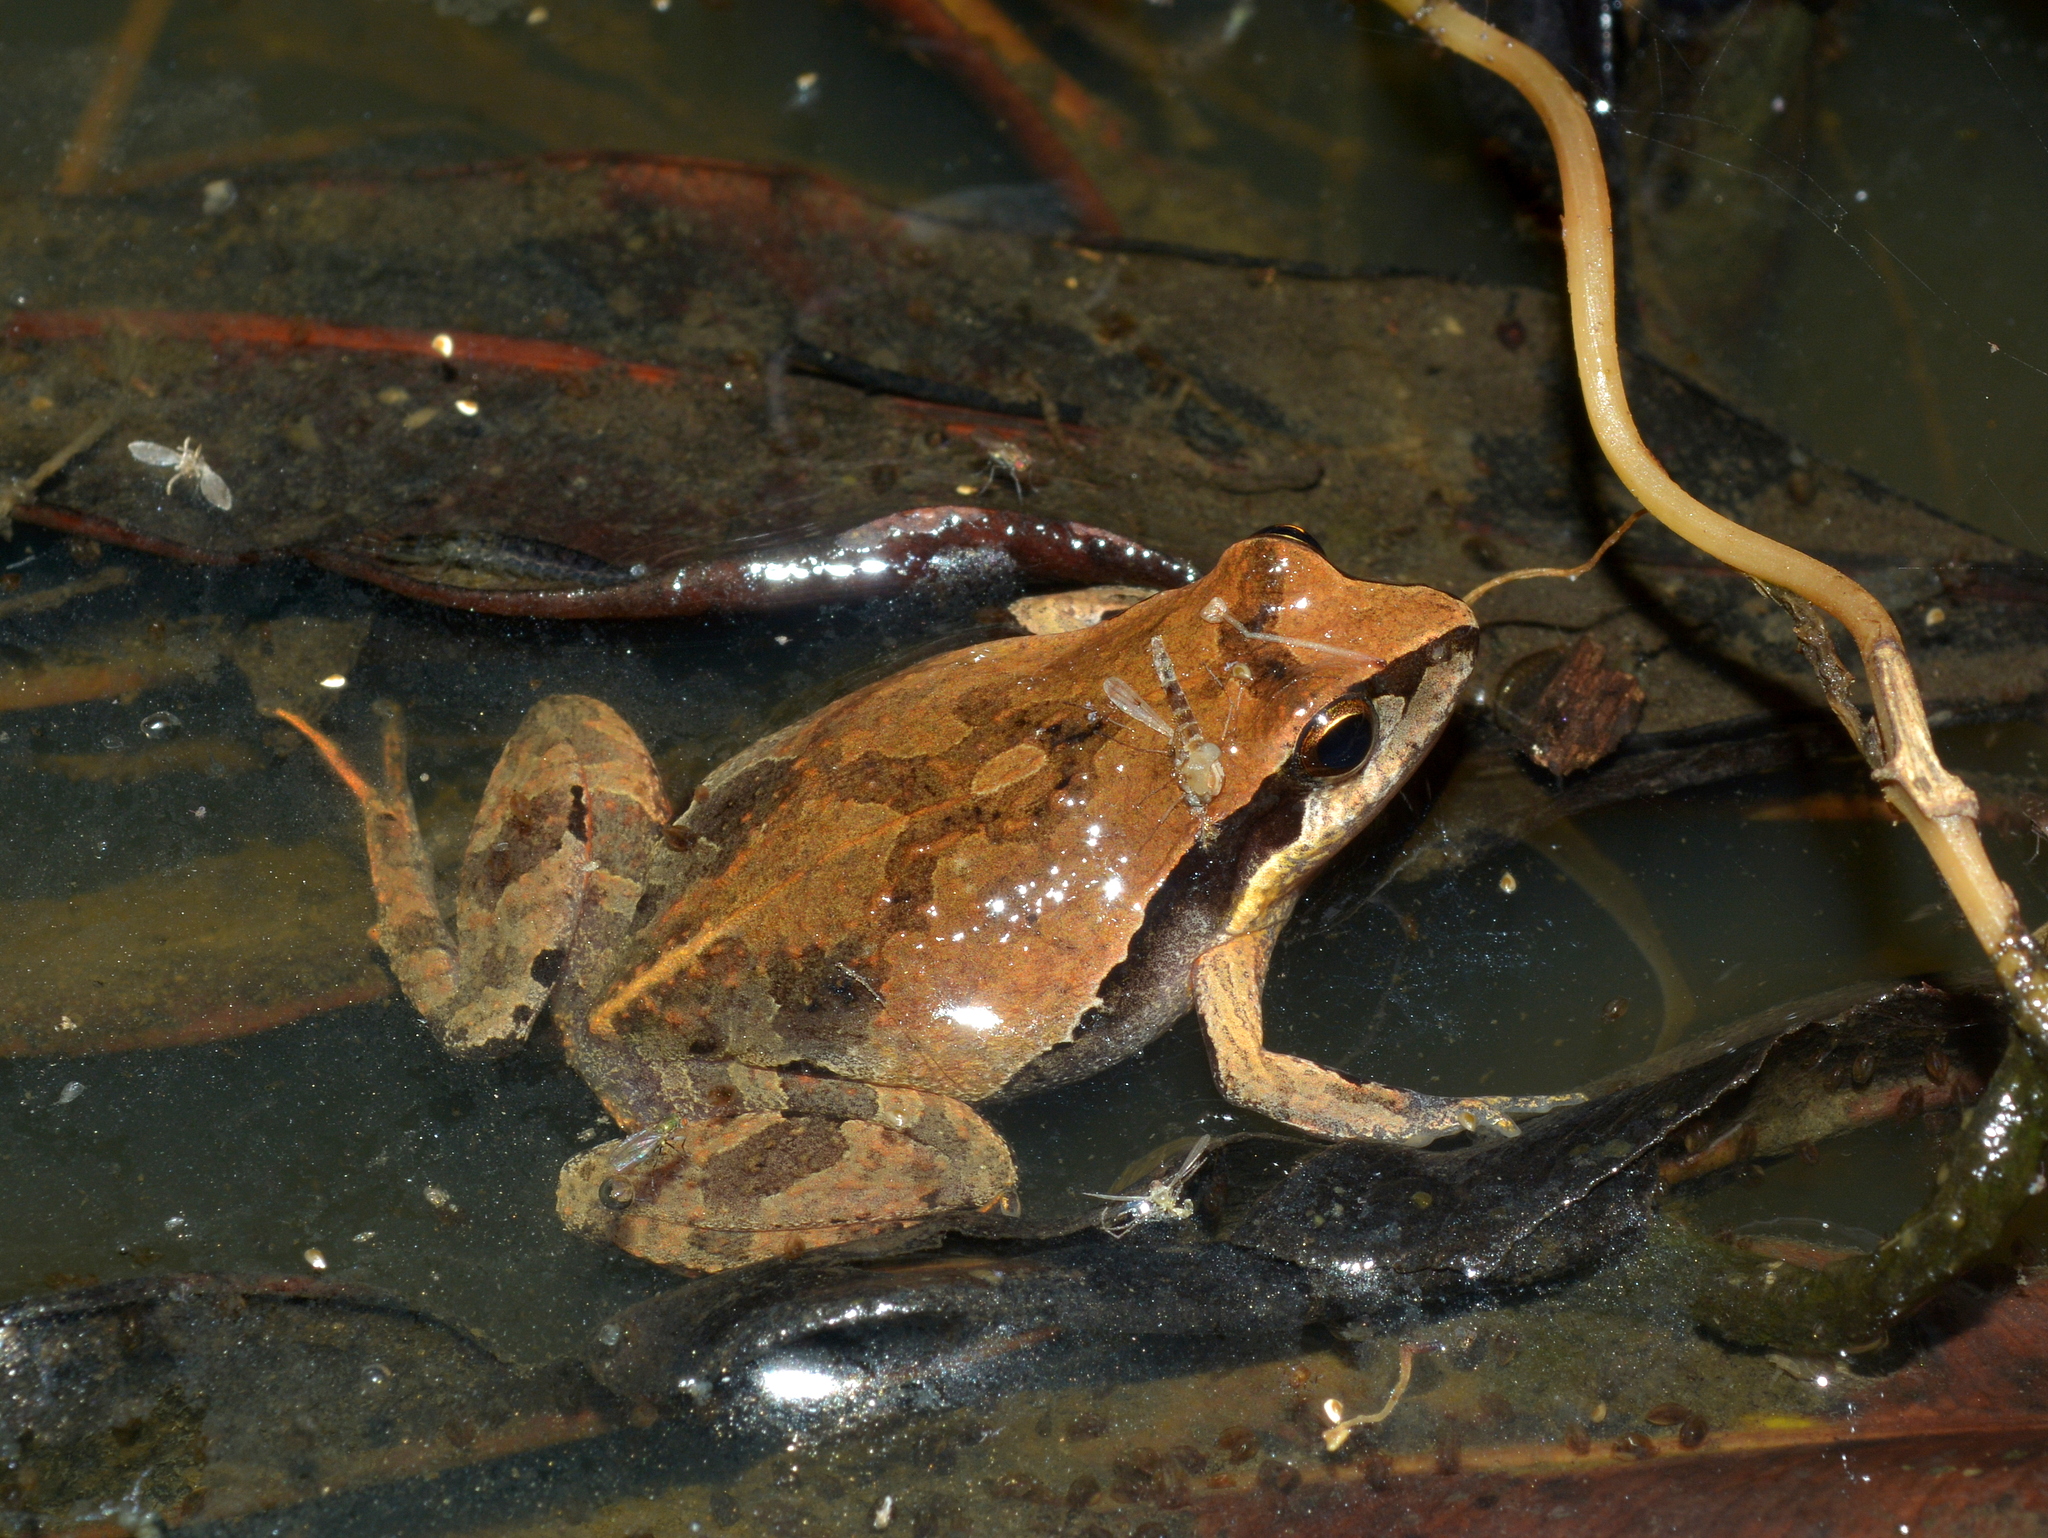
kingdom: Animalia
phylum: Chordata
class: Amphibia
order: Anura
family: Leptodactylidae
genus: Physalaemus
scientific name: Physalaemus gracilis
